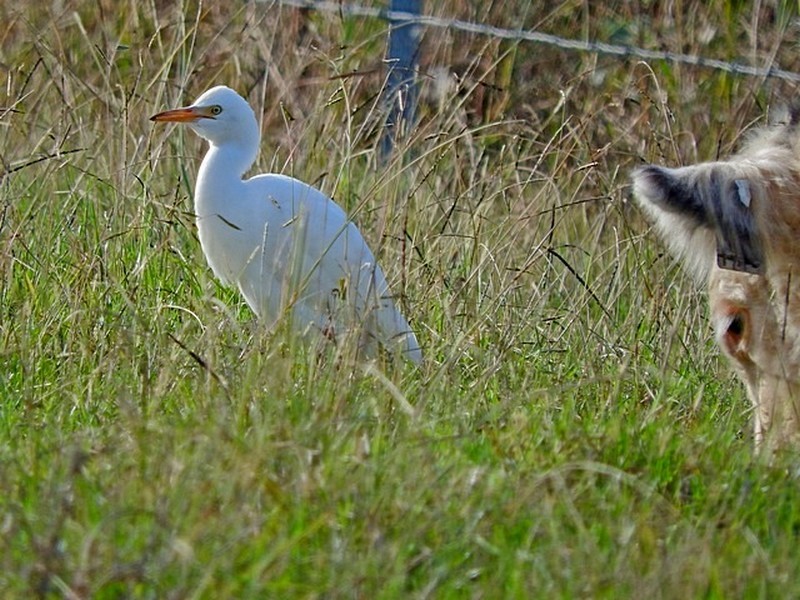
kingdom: Animalia
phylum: Chordata
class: Aves
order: Pelecaniformes
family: Ardeidae
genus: Bubulcus
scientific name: Bubulcus coromandus
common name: Eastern cattle egret
